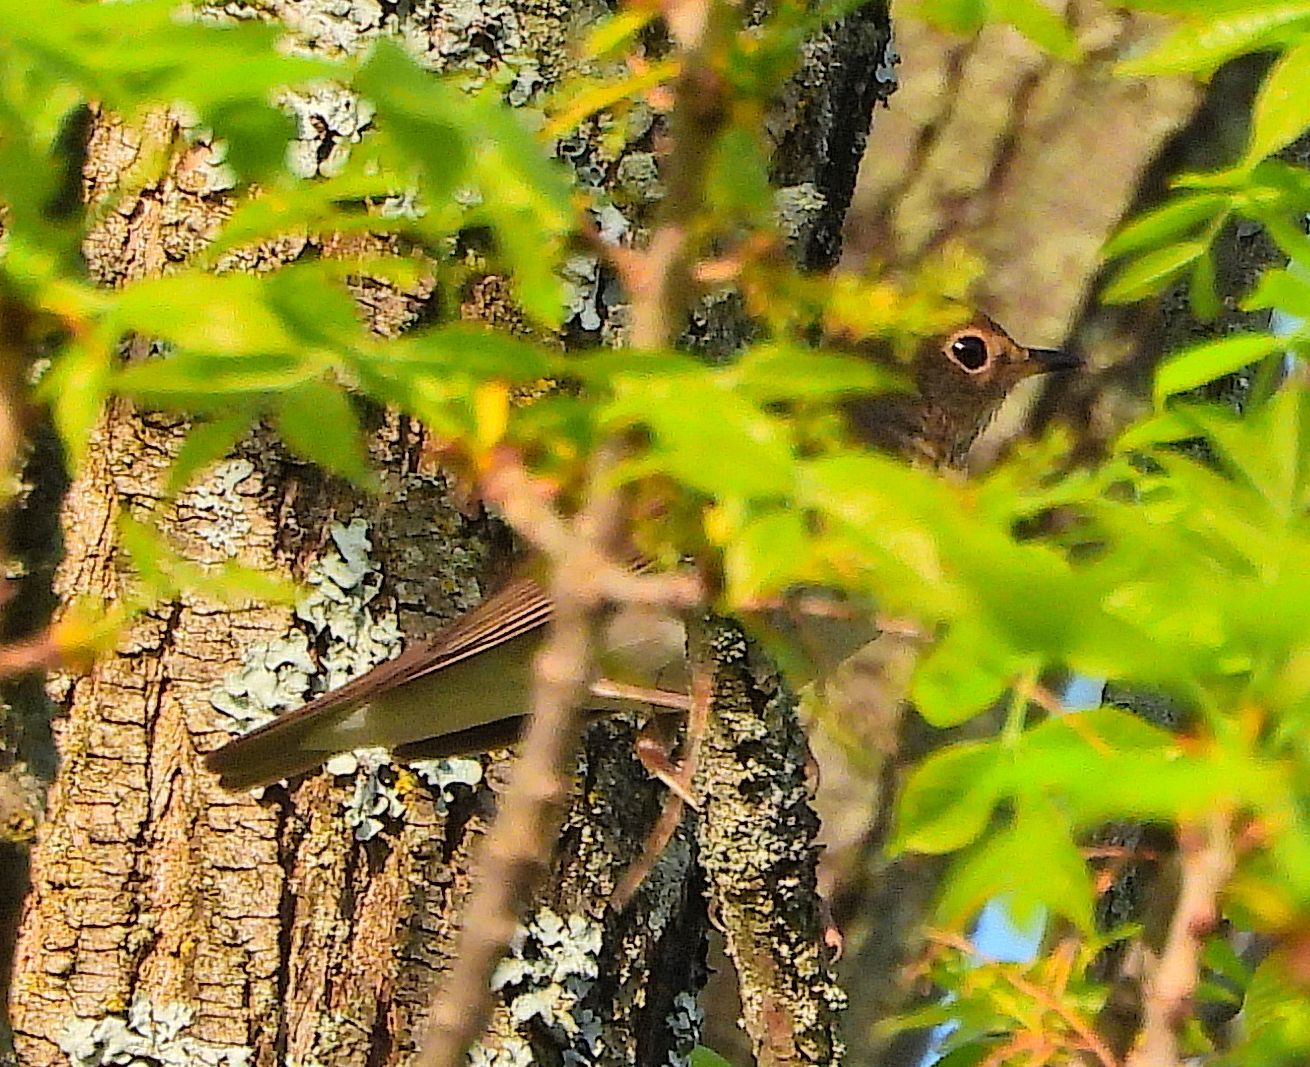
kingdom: Animalia
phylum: Chordata
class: Aves
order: Passeriformes
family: Turdidae
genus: Catharus
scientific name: Catharus ustulatus
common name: Swainson's thrush
